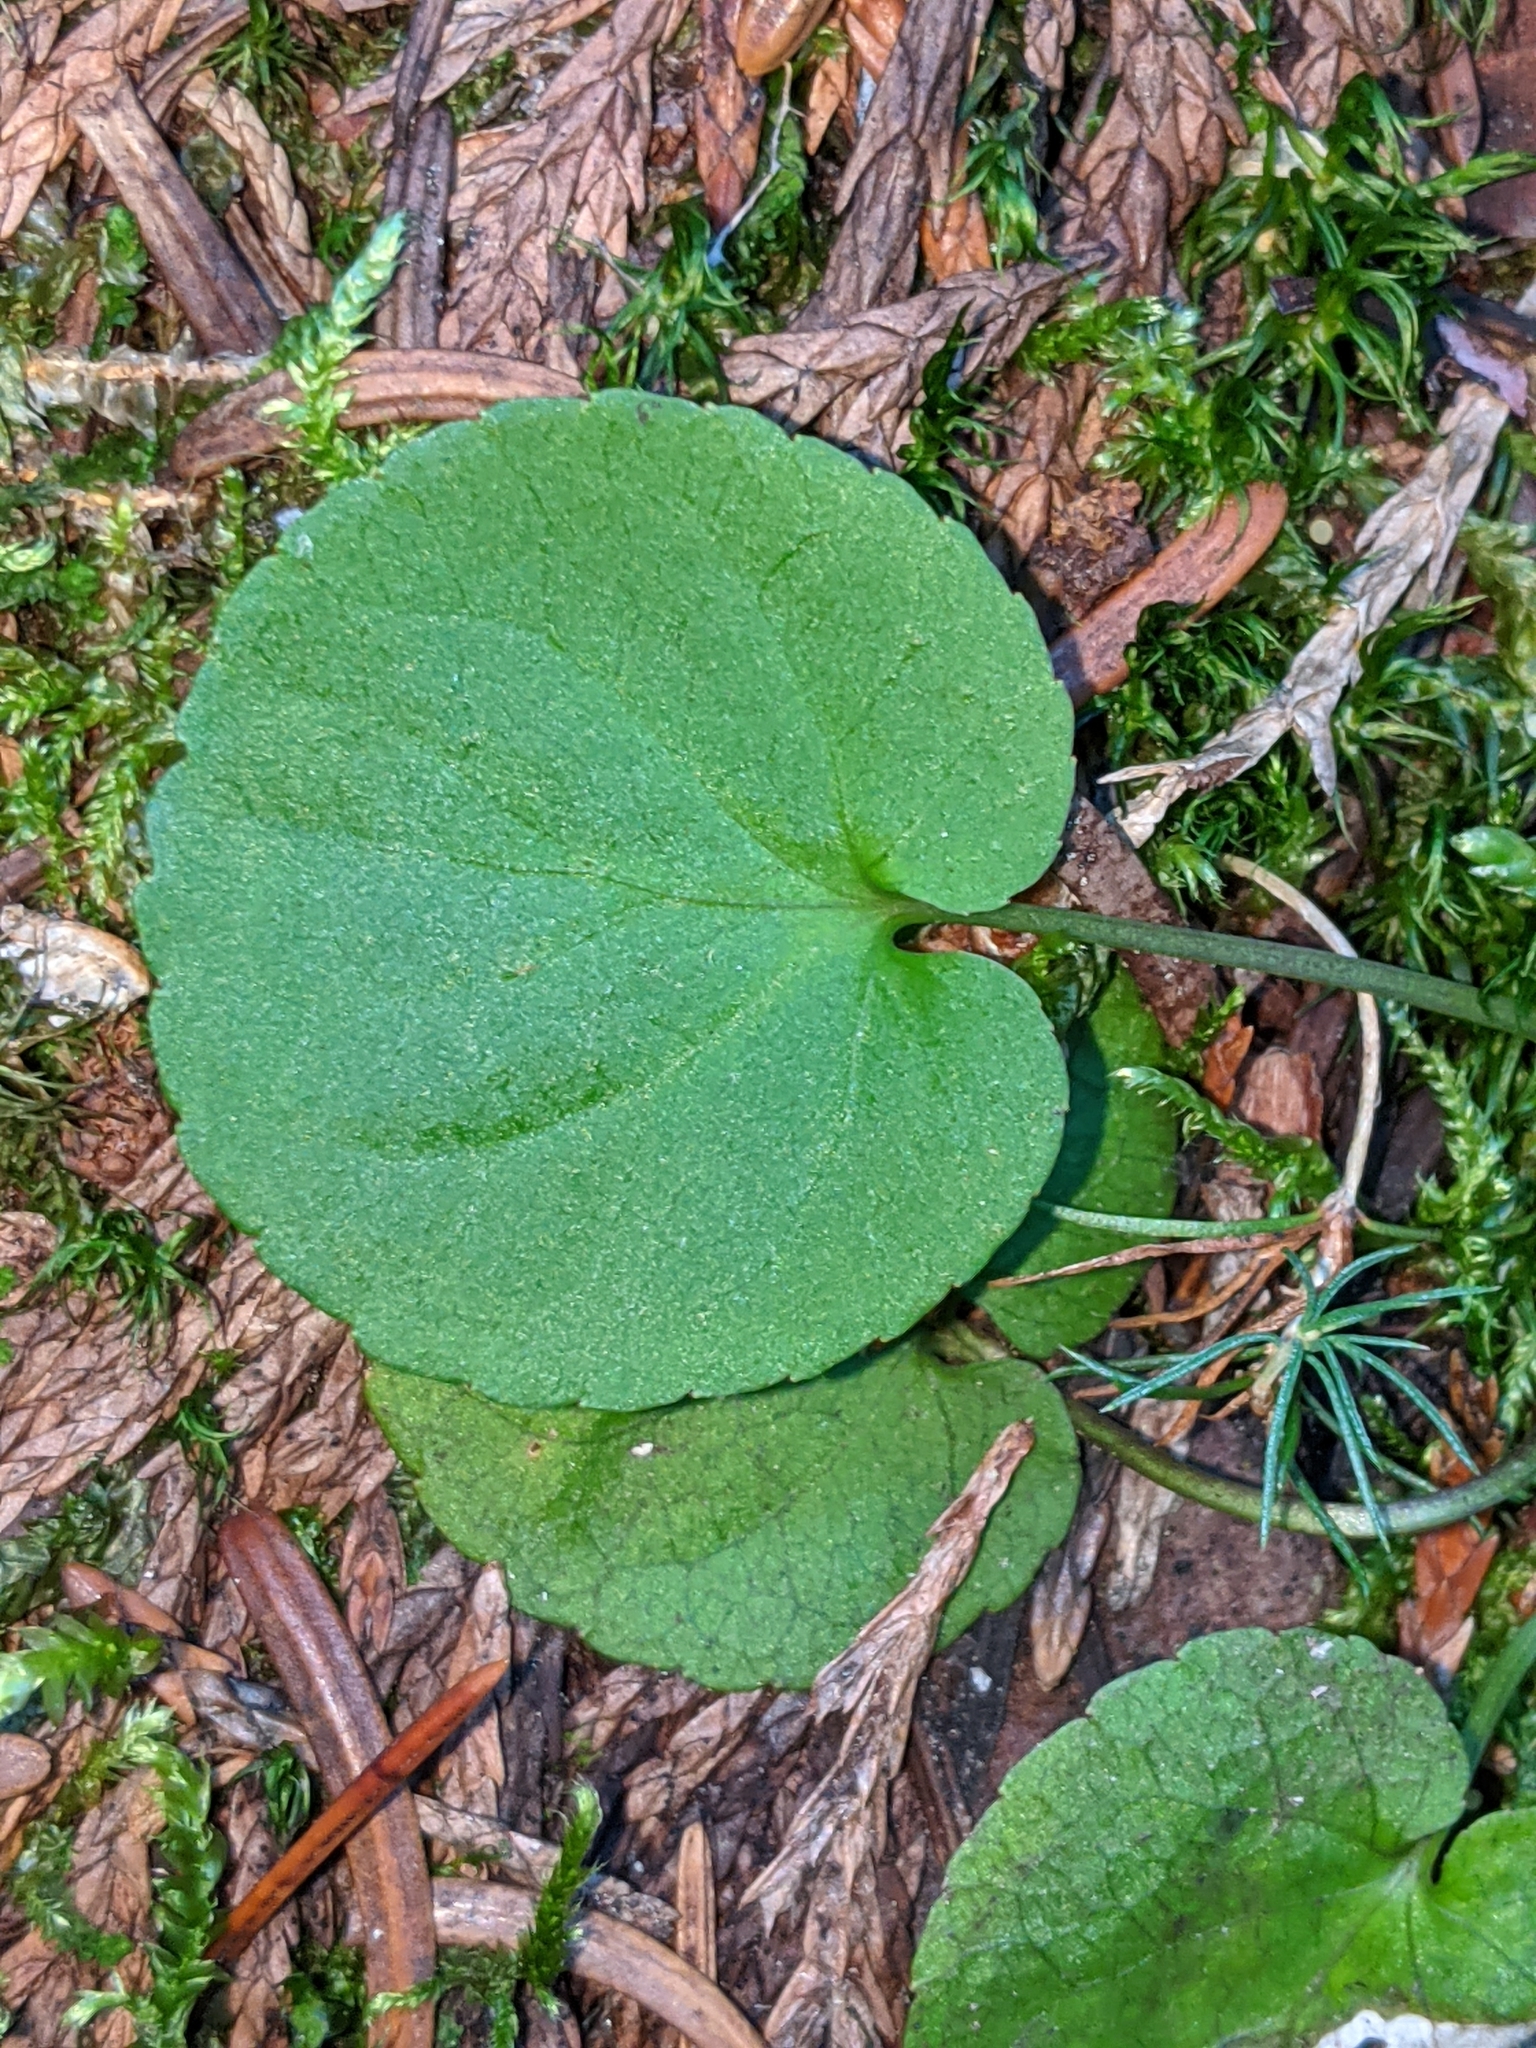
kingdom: Plantae
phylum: Tracheophyta
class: Magnoliopsida
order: Malpighiales
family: Violaceae
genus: Viola
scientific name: Viola sempervirens
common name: Evergreen violet
